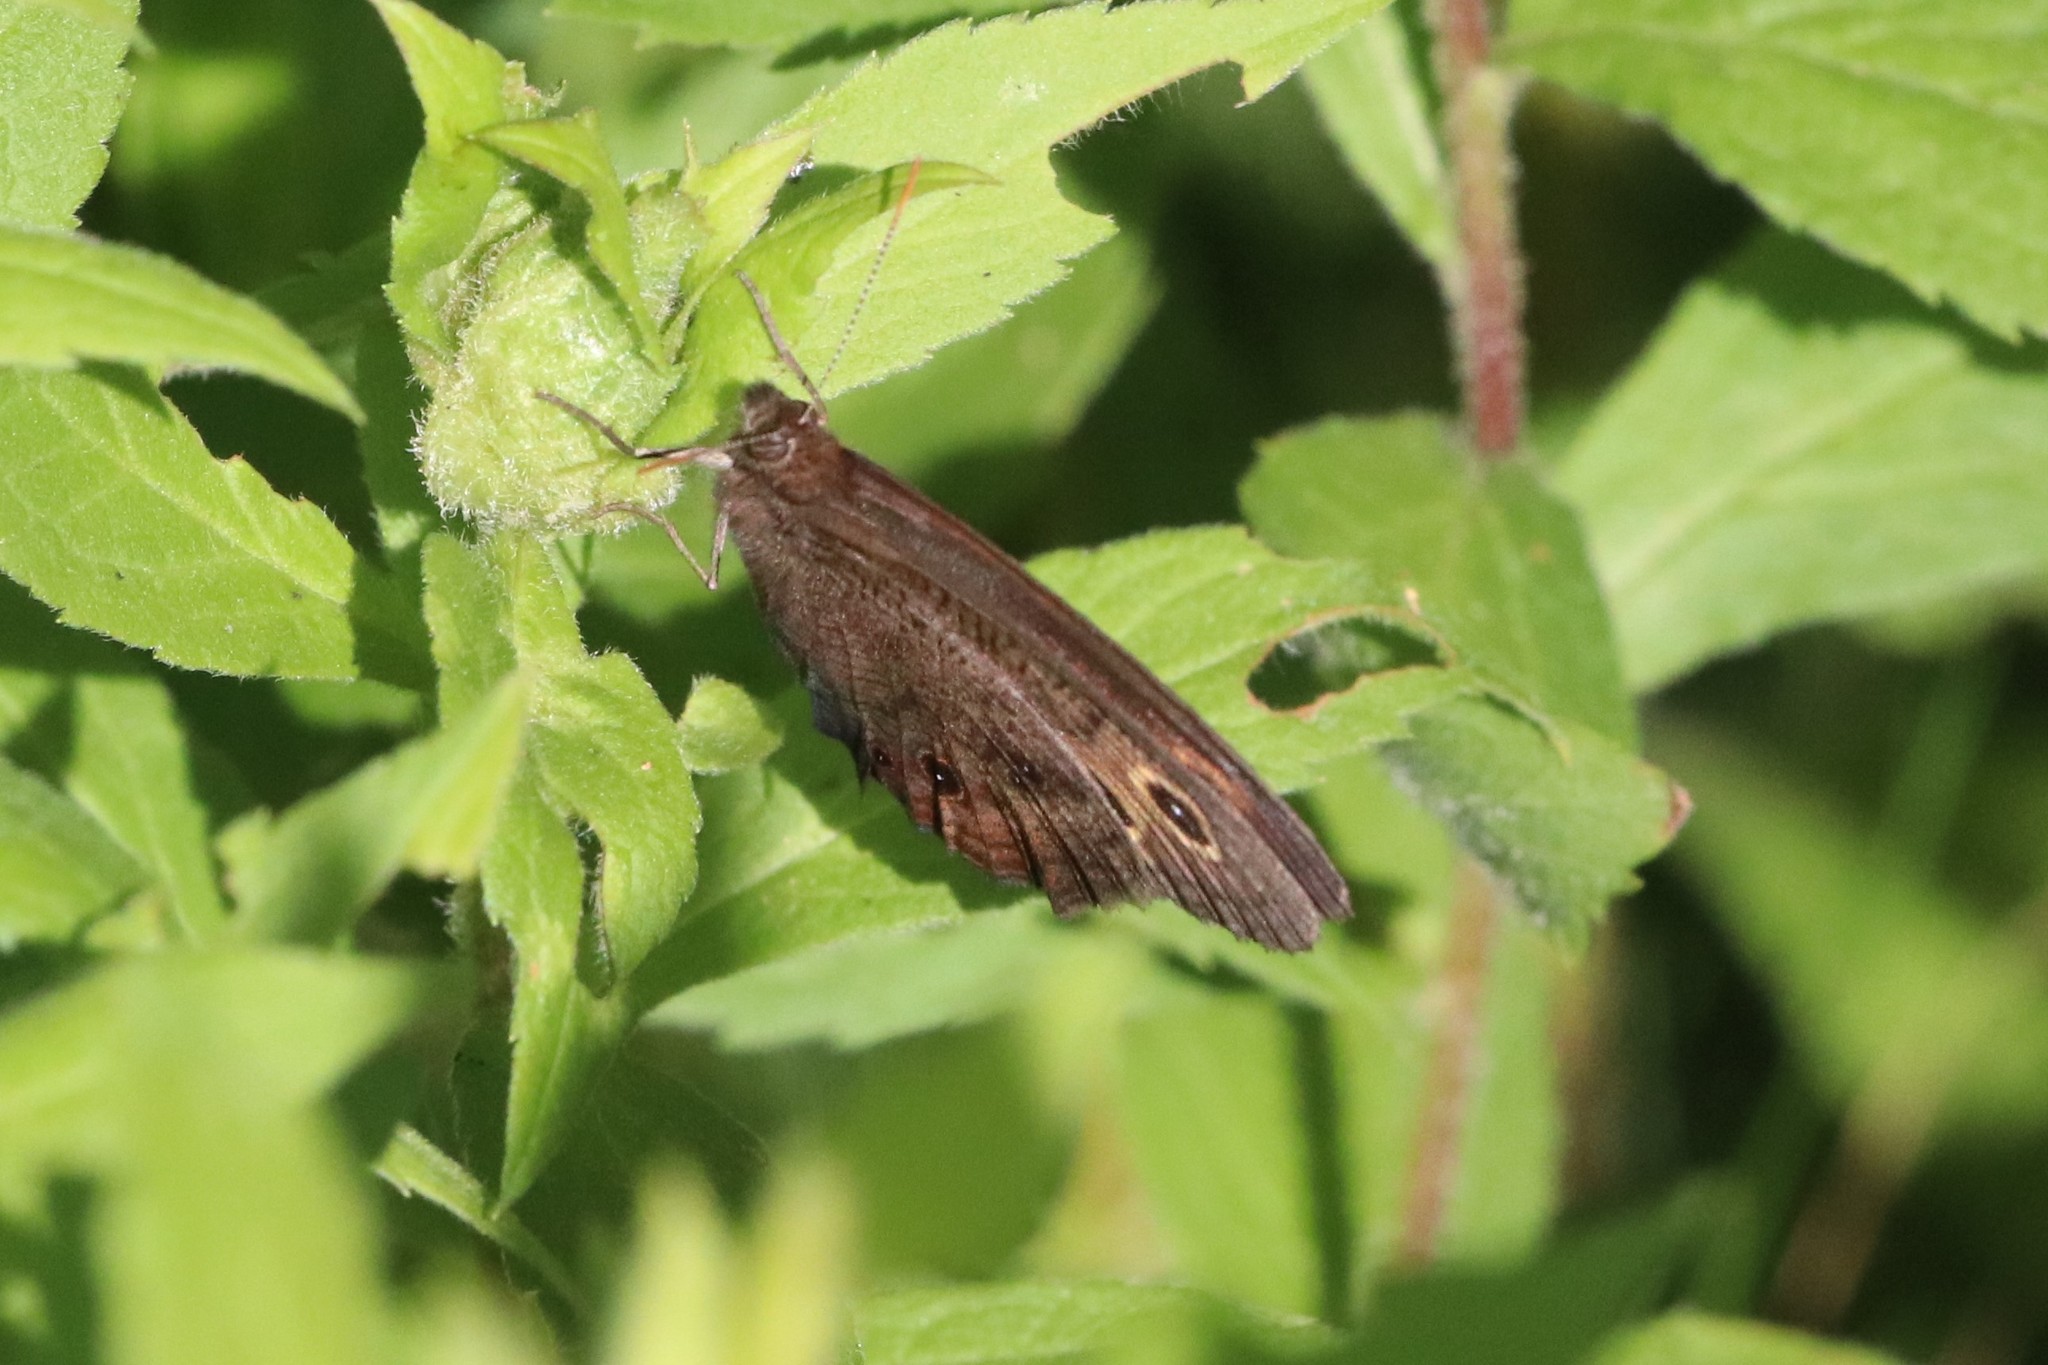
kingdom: Animalia
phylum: Arthropoda
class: Insecta
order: Lepidoptera
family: Nymphalidae
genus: Cercyonis
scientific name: Cercyonis pegala
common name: Common wood-nymph
